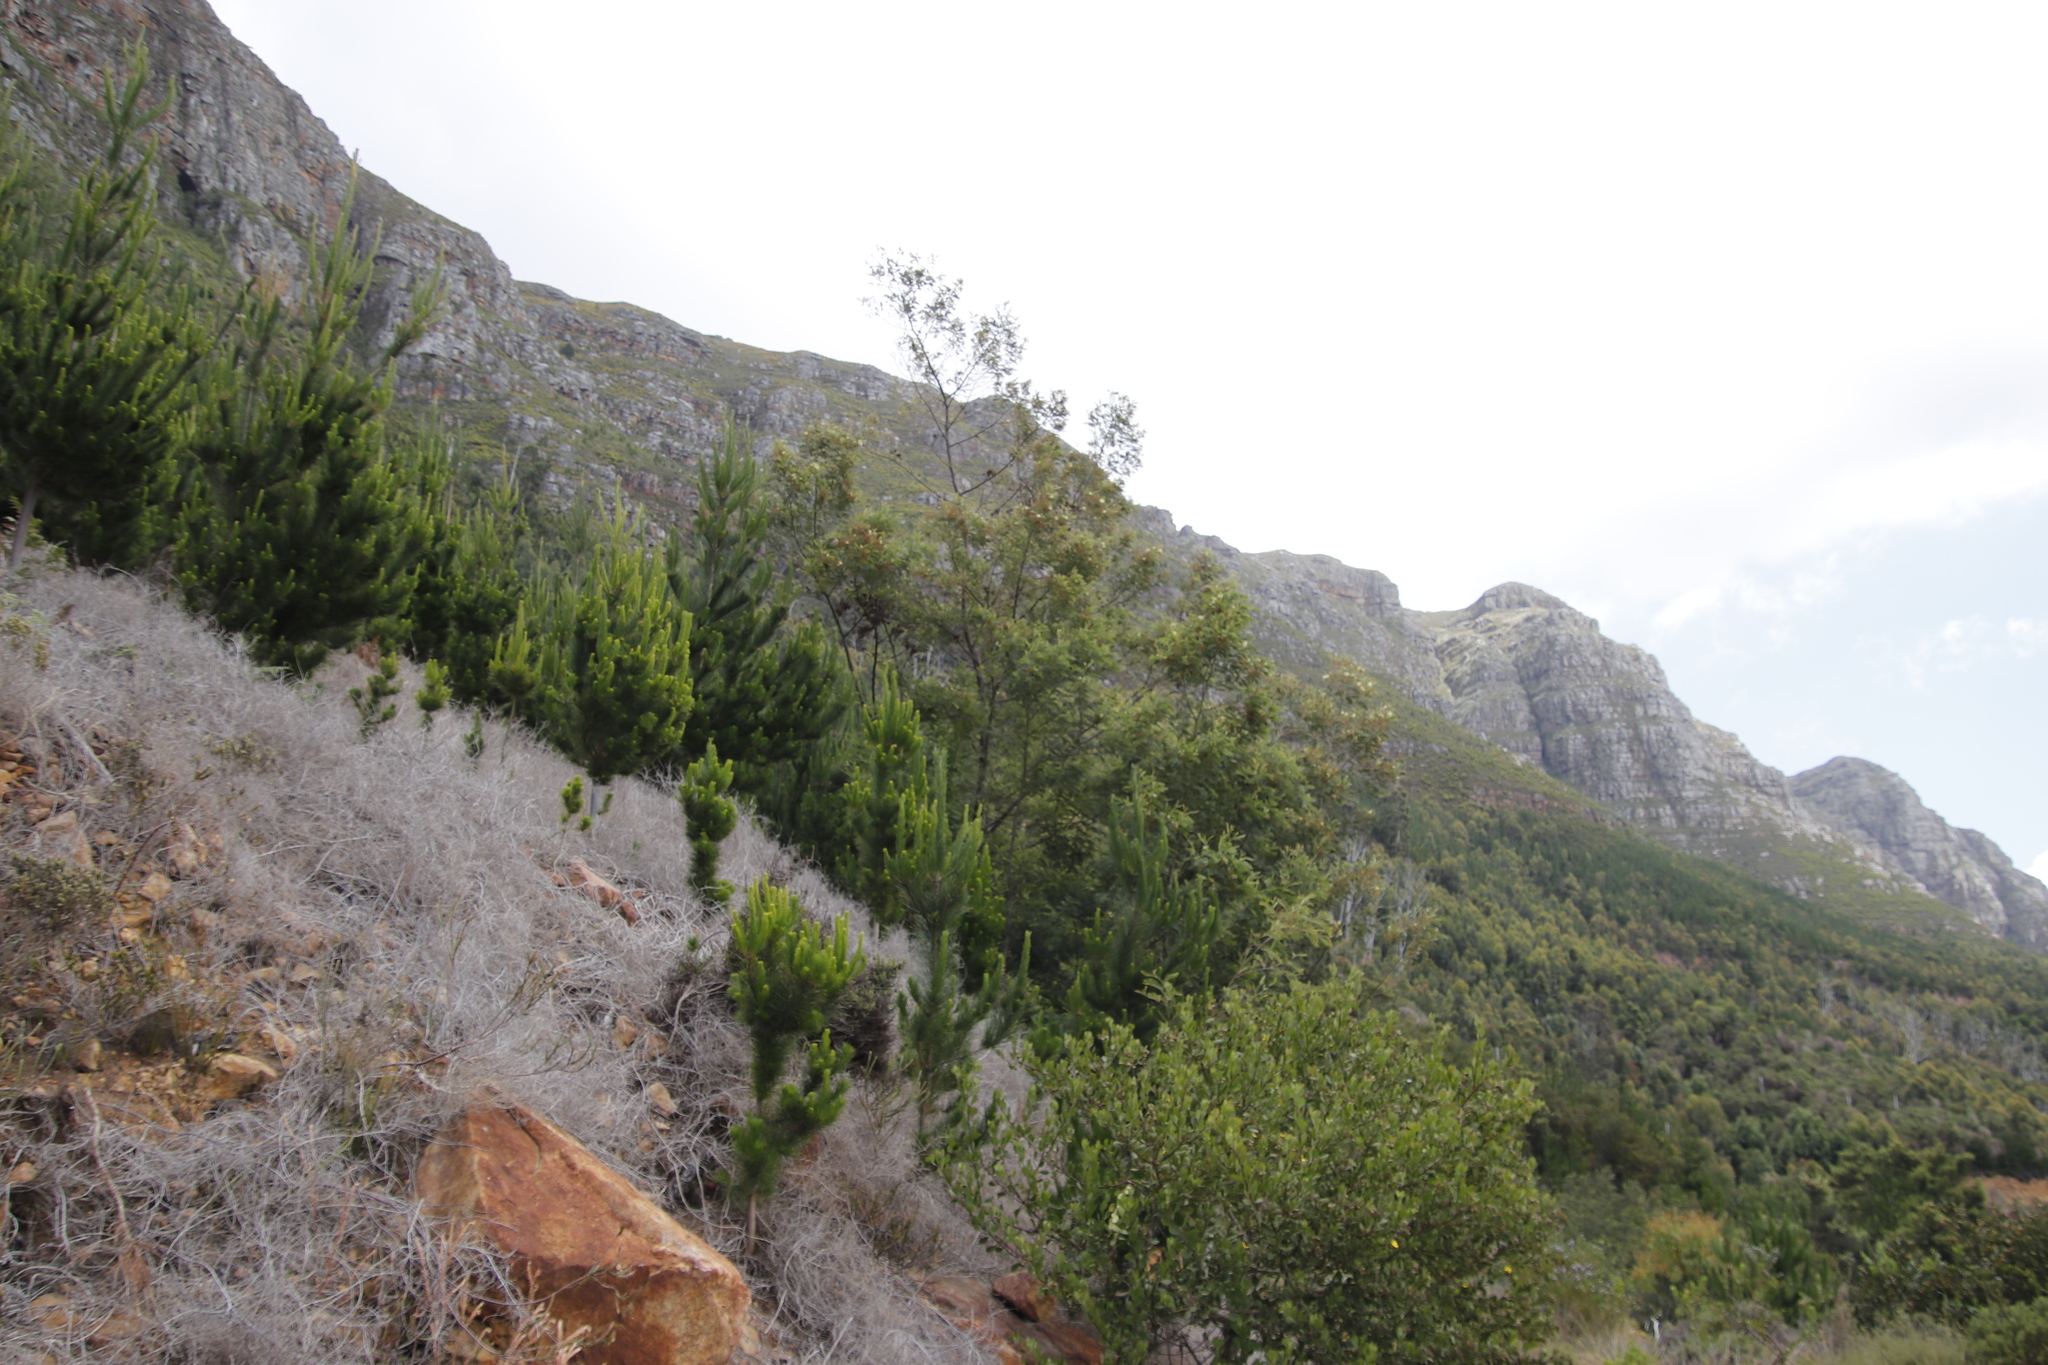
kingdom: Plantae
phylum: Tracheophyta
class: Magnoliopsida
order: Fabales
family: Fabaceae
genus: Acacia
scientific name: Acacia mearnsii
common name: Black wattle
